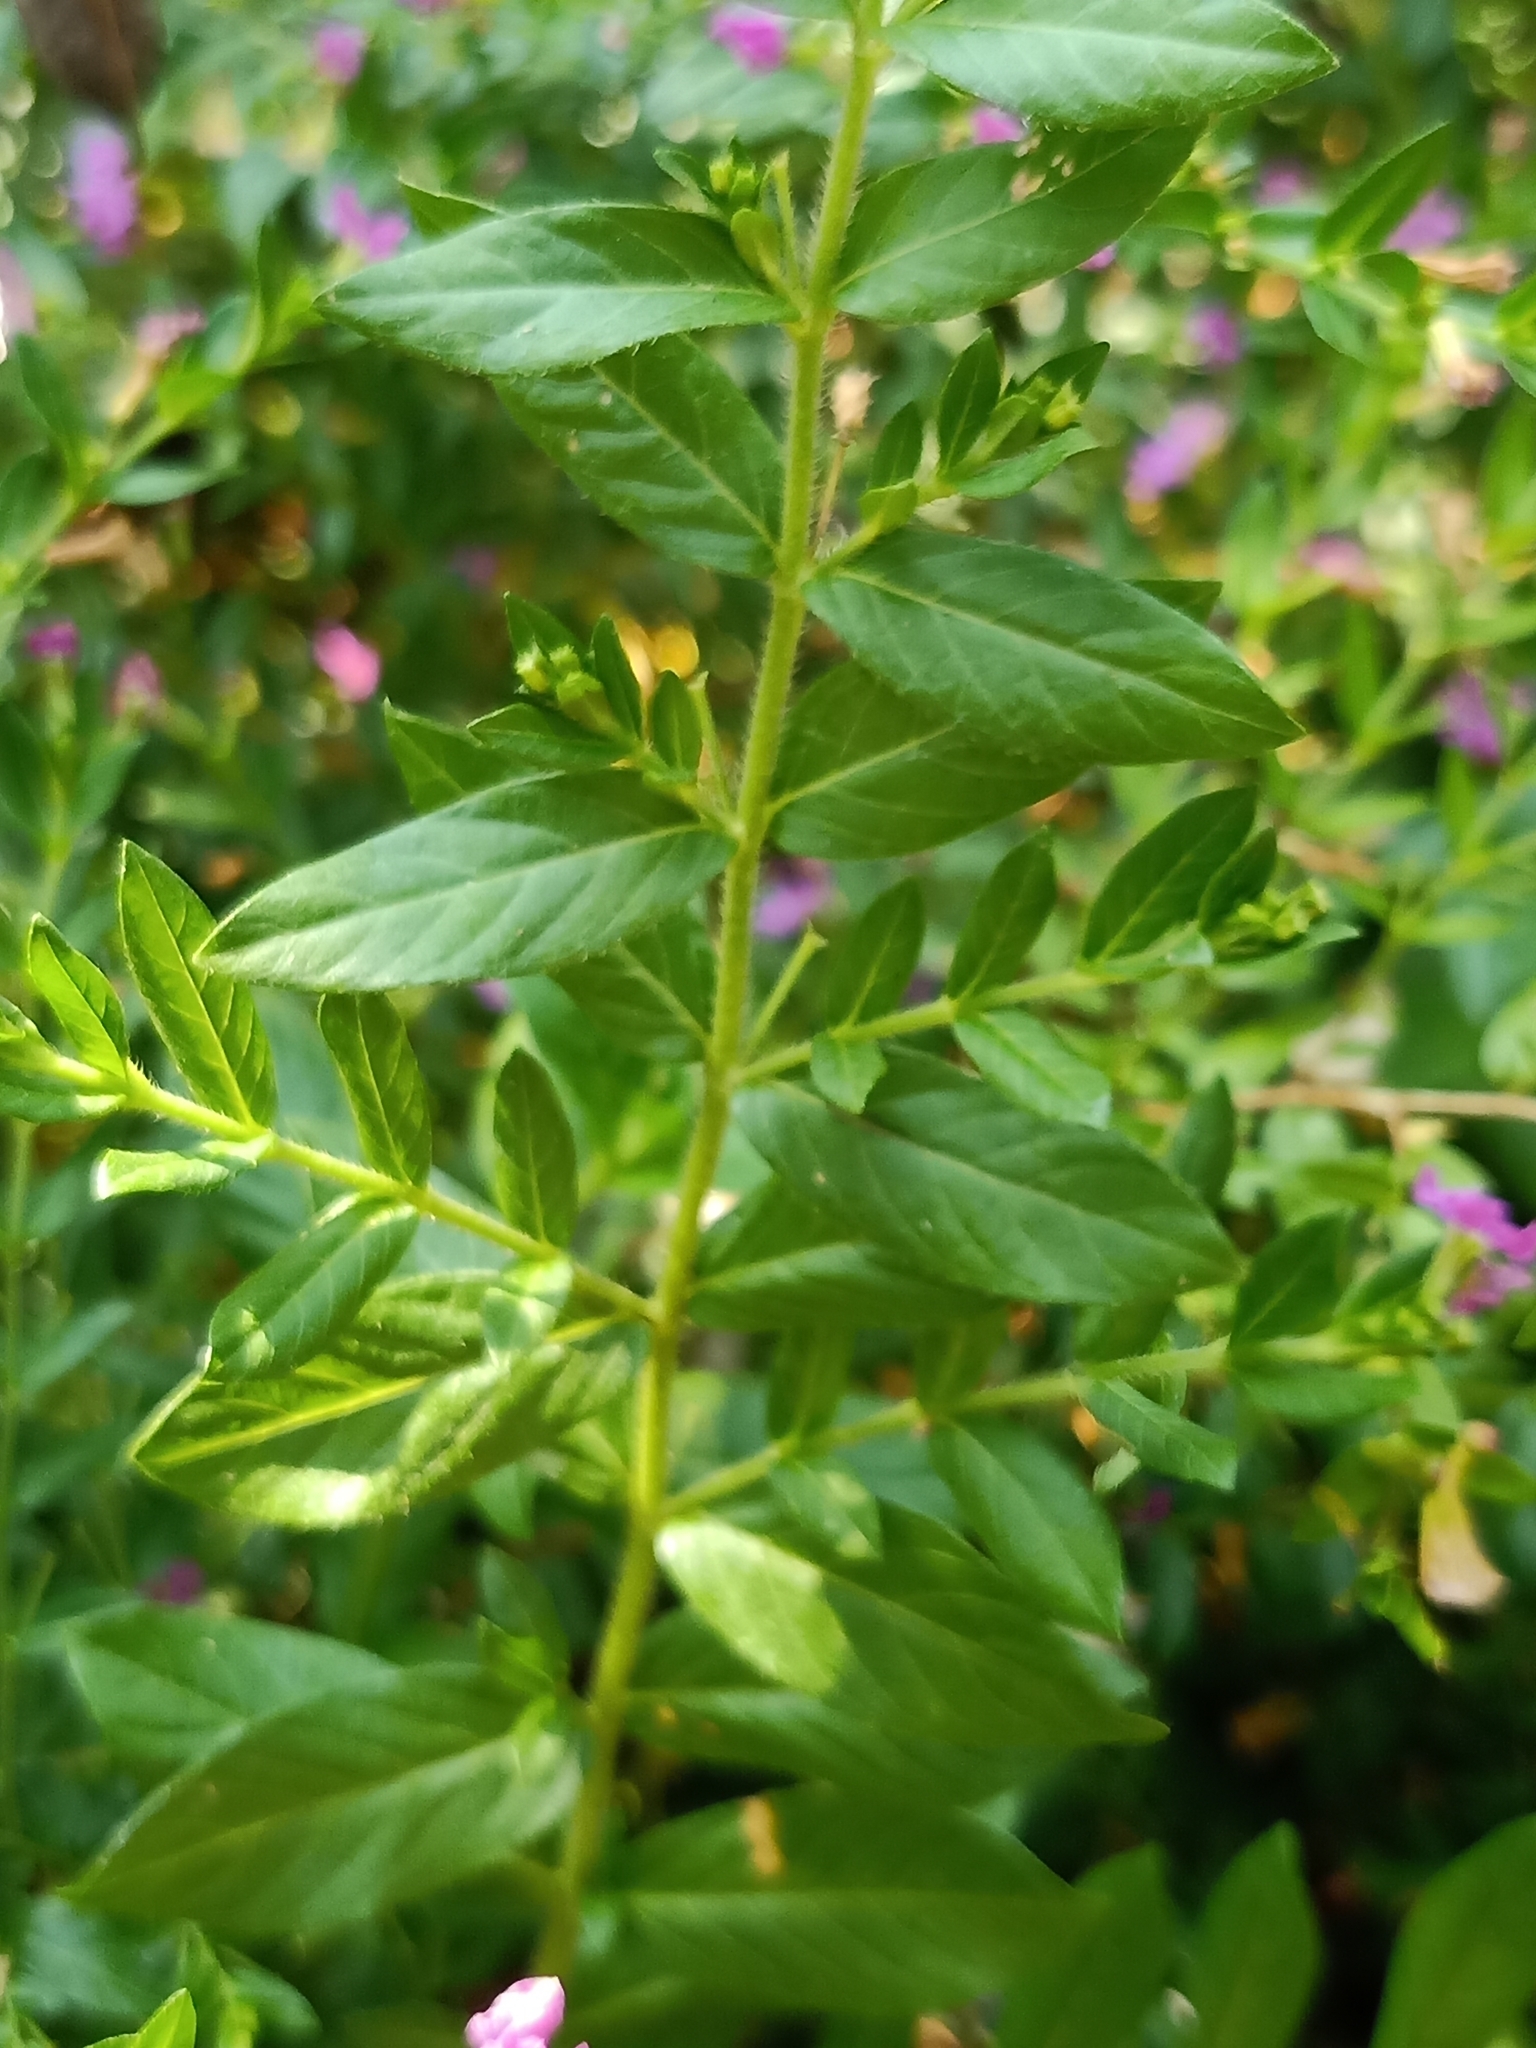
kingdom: Plantae
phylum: Tracheophyta
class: Magnoliopsida
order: Myrtales
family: Lythraceae
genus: Cuphea
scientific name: Cuphea hyssopifolia
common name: False heather
